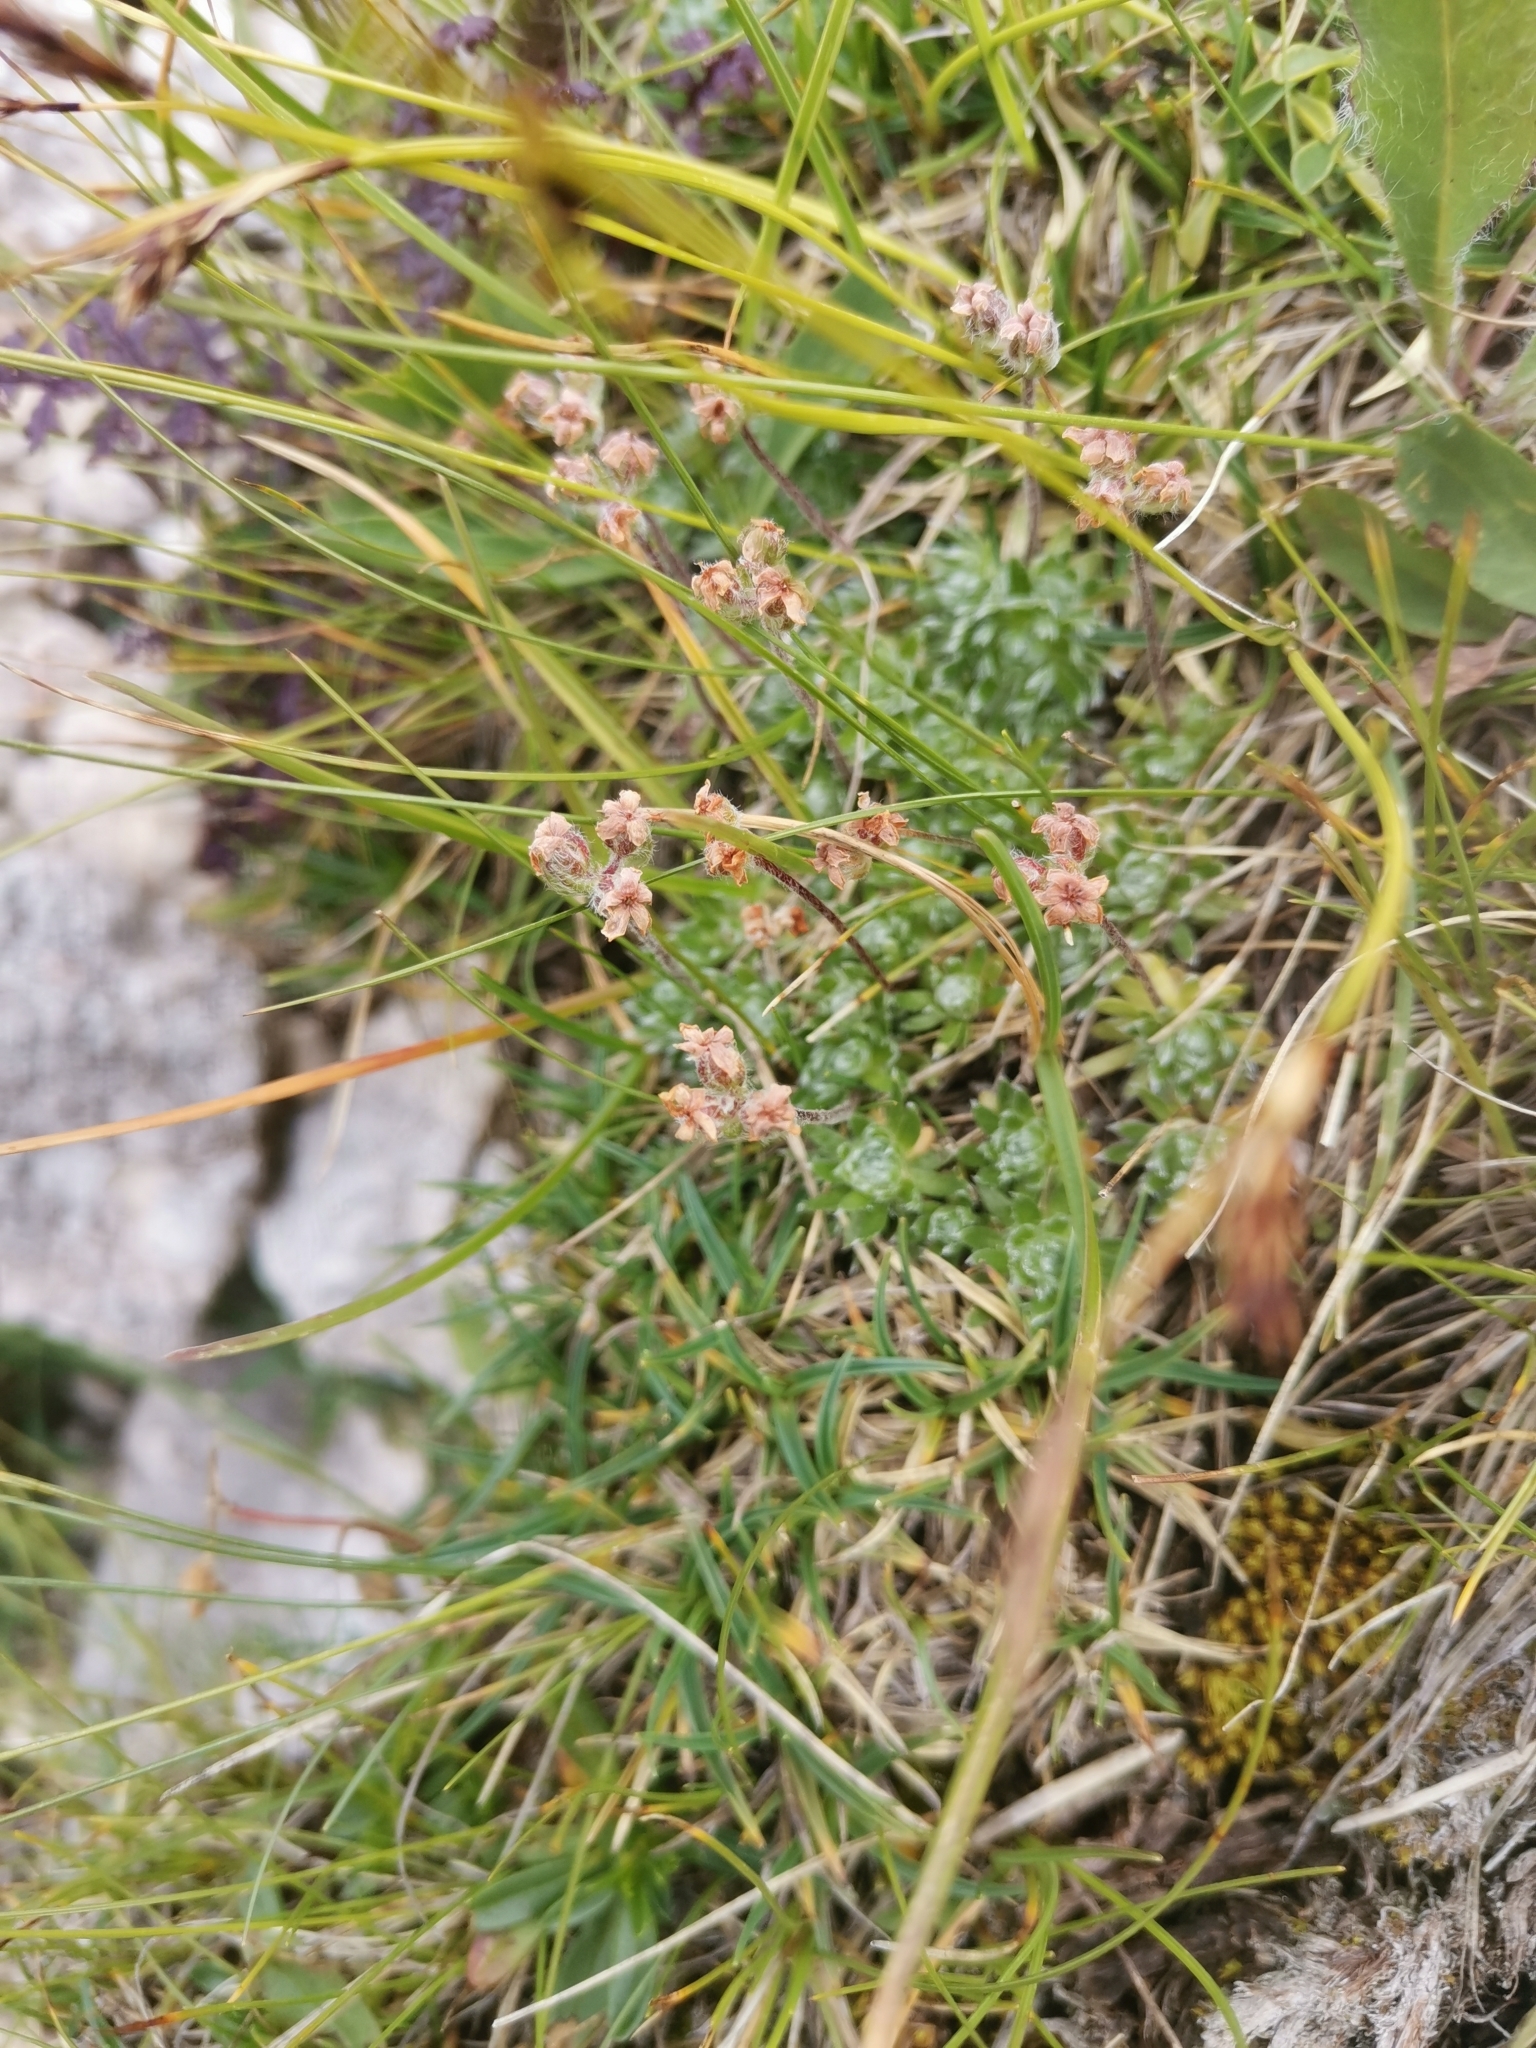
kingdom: Plantae
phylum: Tracheophyta
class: Magnoliopsida
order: Ericales
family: Primulaceae
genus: Androsace
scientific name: Androsace villosa
